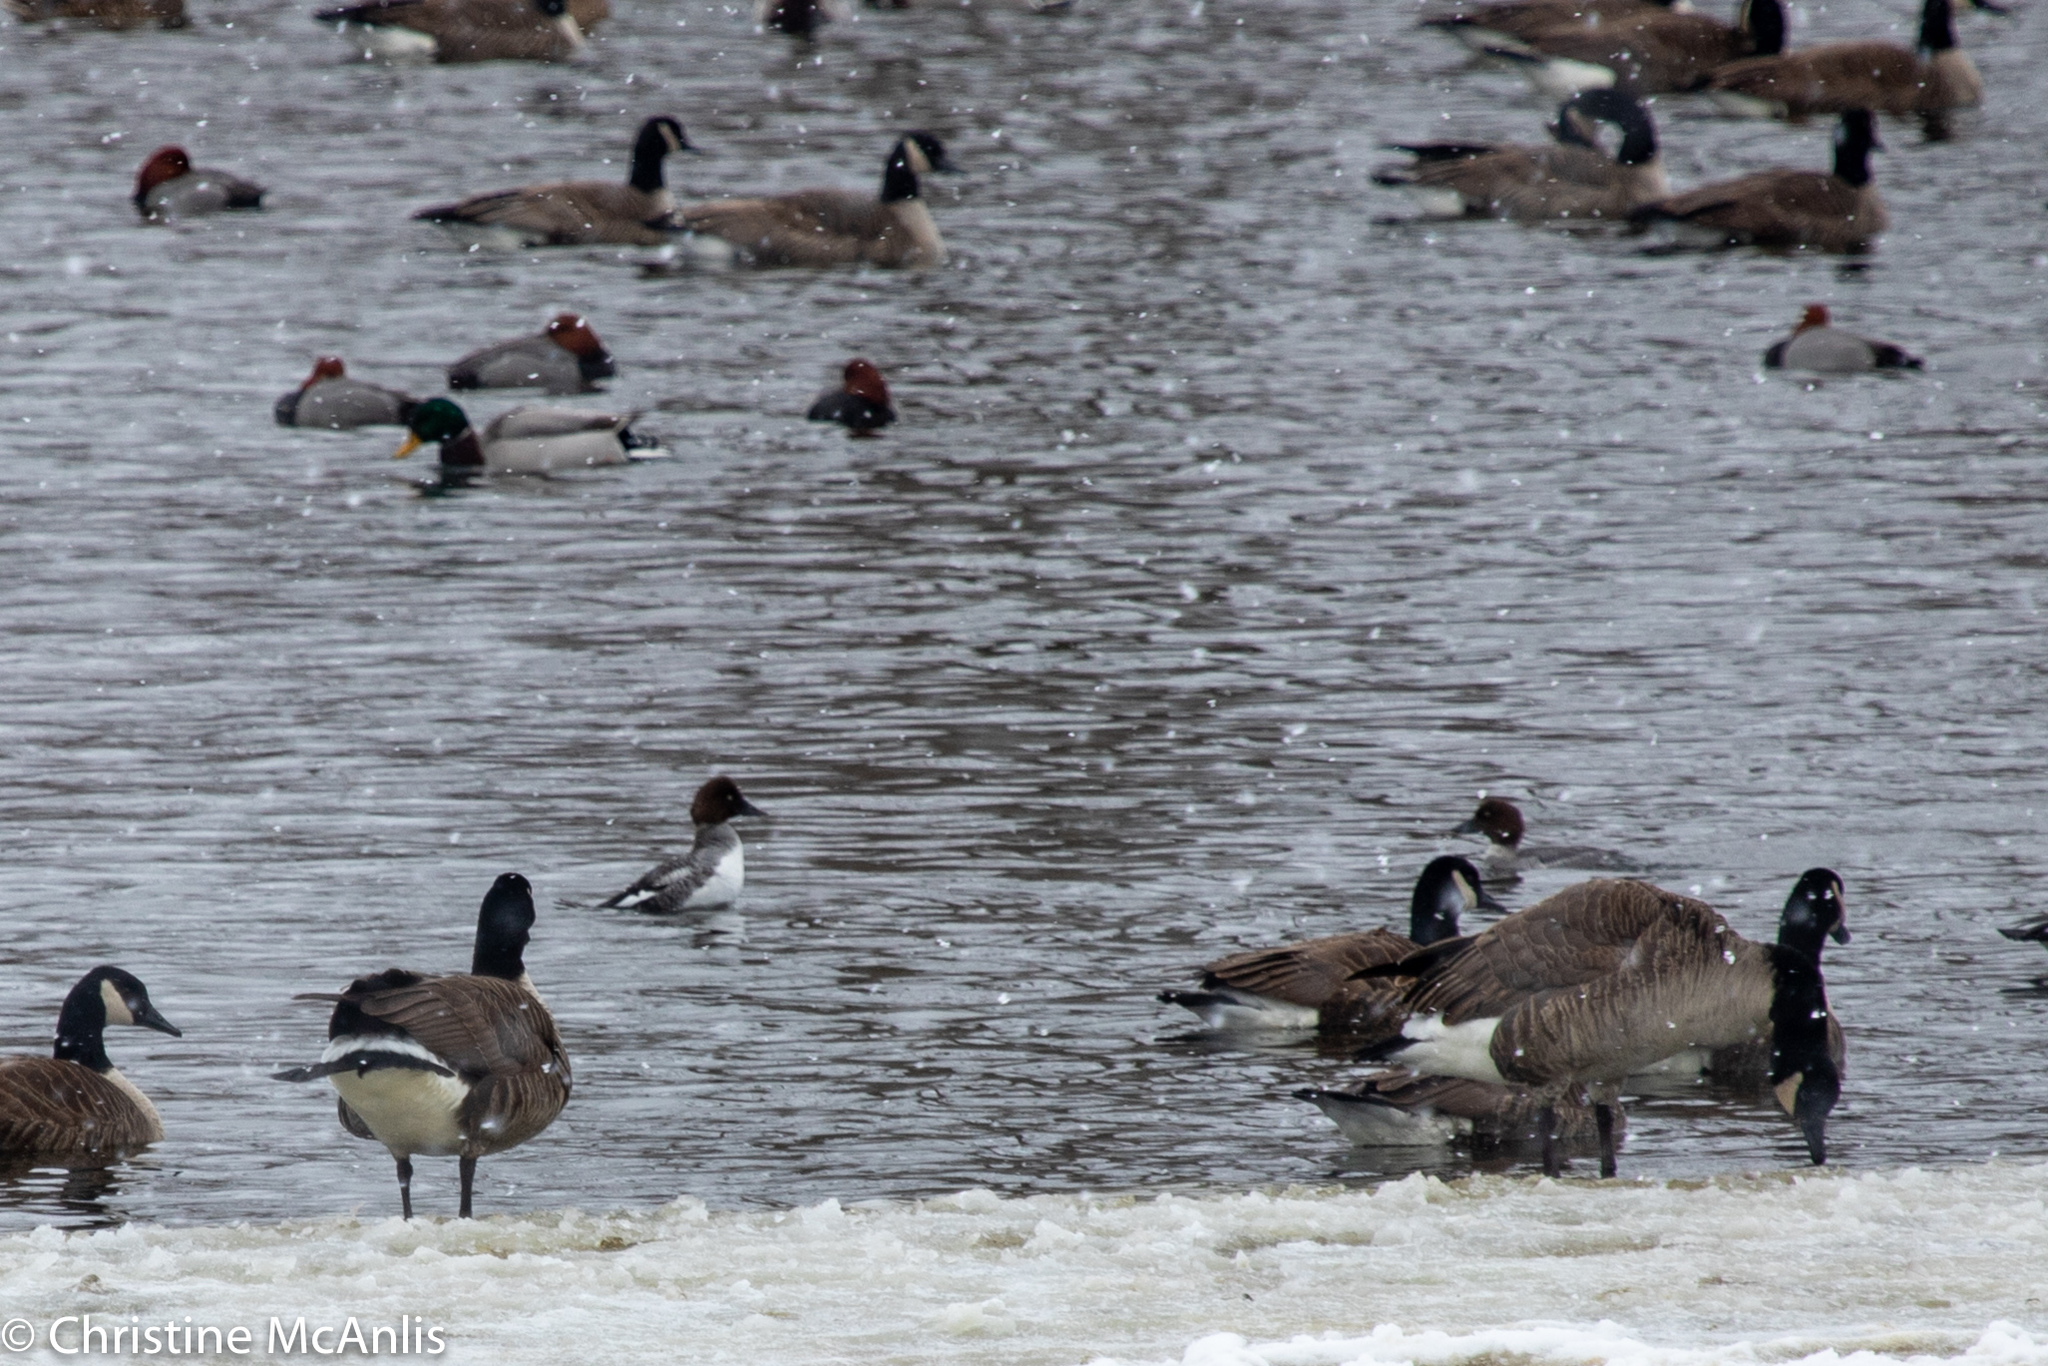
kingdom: Animalia
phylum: Chordata
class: Aves
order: Anseriformes
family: Anatidae
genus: Bucephala
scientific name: Bucephala clangula
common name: Common goldeneye
